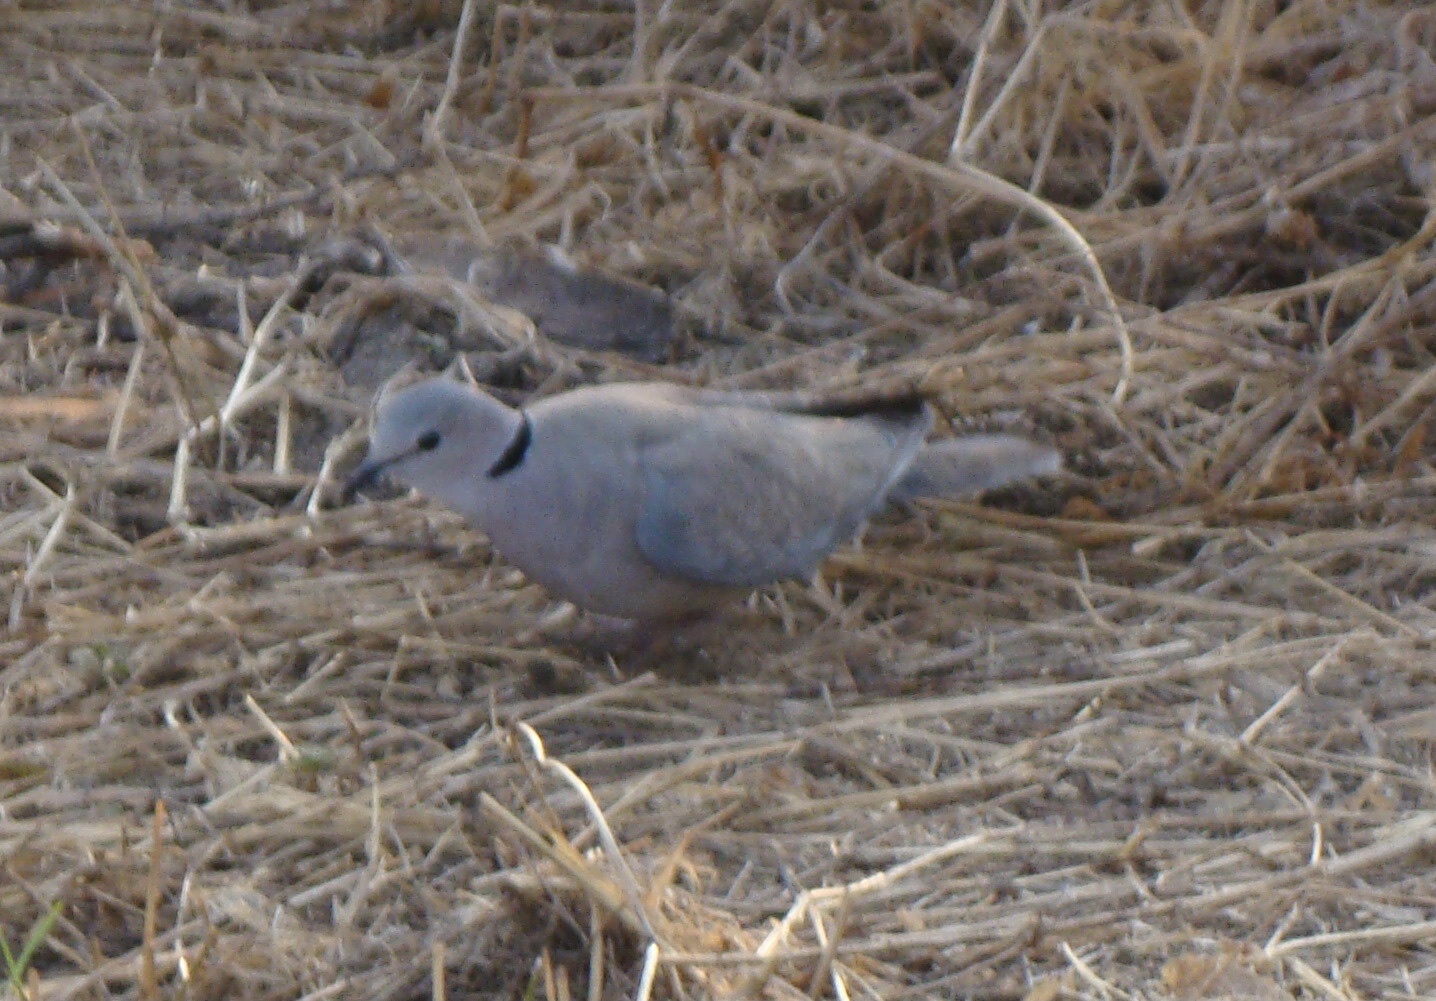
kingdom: Animalia
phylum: Chordata
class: Aves
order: Columbiformes
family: Columbidae
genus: Streptopelia
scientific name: Streptopelia capicola
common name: Ring-necked dove
